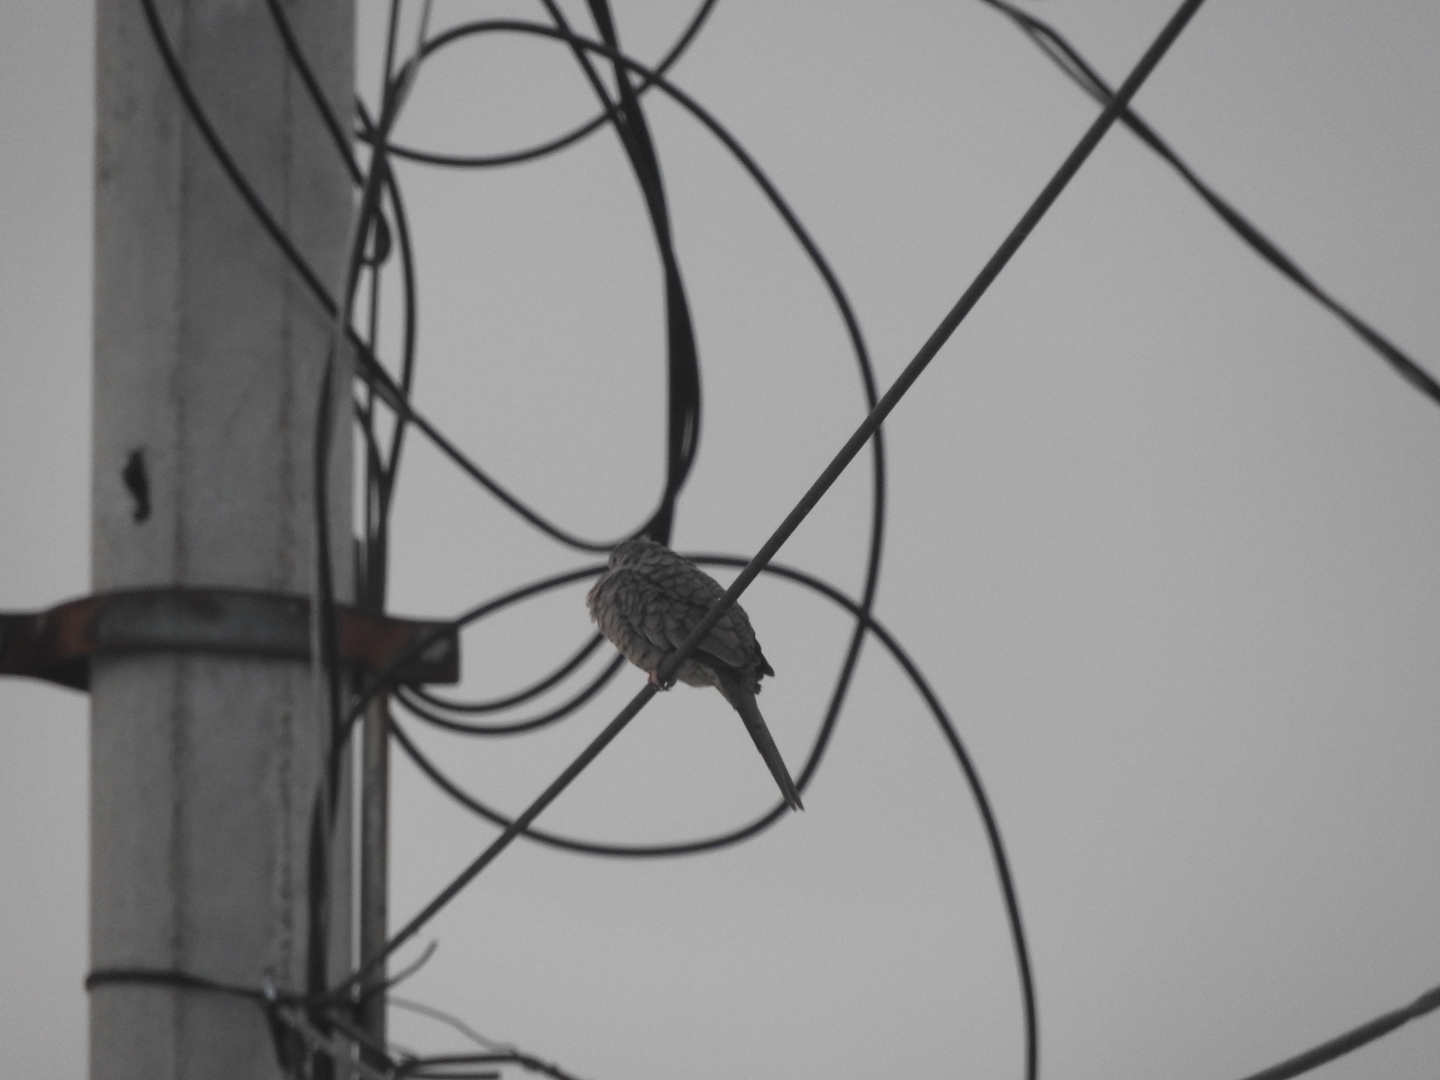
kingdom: Animalia
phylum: Chordata
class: Aves
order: Columbiformes
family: Columbidae
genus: Columbina
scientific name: Columbina inca
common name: Inca dove
